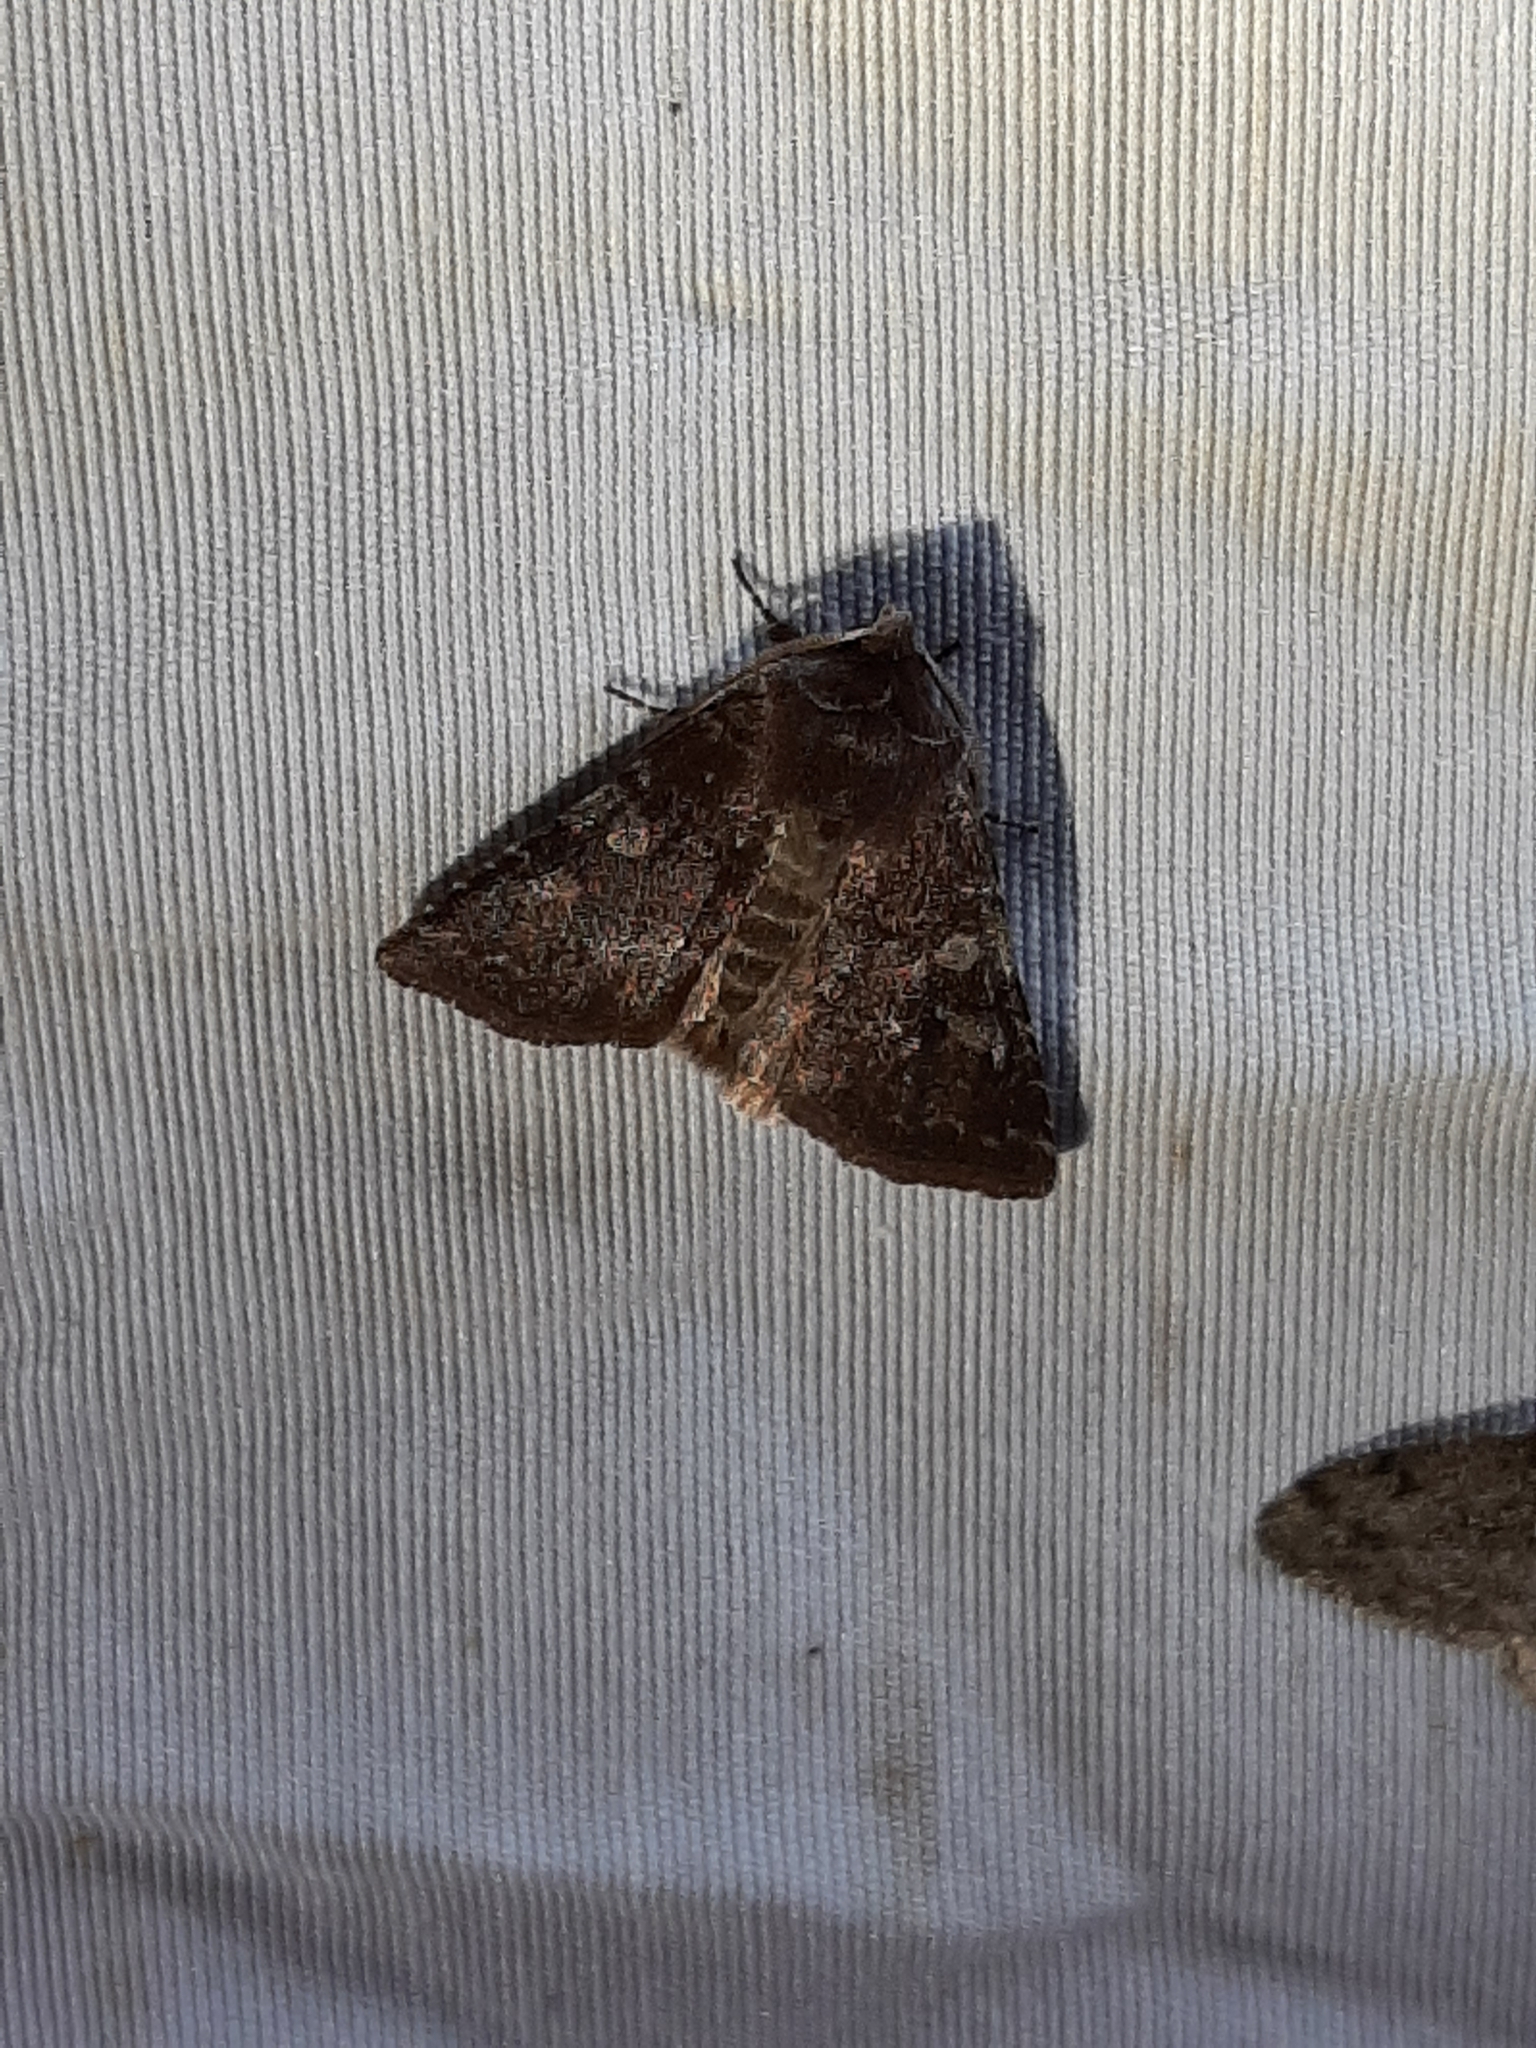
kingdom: Animalia
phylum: Arthropoda
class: Insecta
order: Lepidoptera
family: Noctuidae
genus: Cerastis
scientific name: Cerastis tenebrifera
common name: Reddish speckled dart
